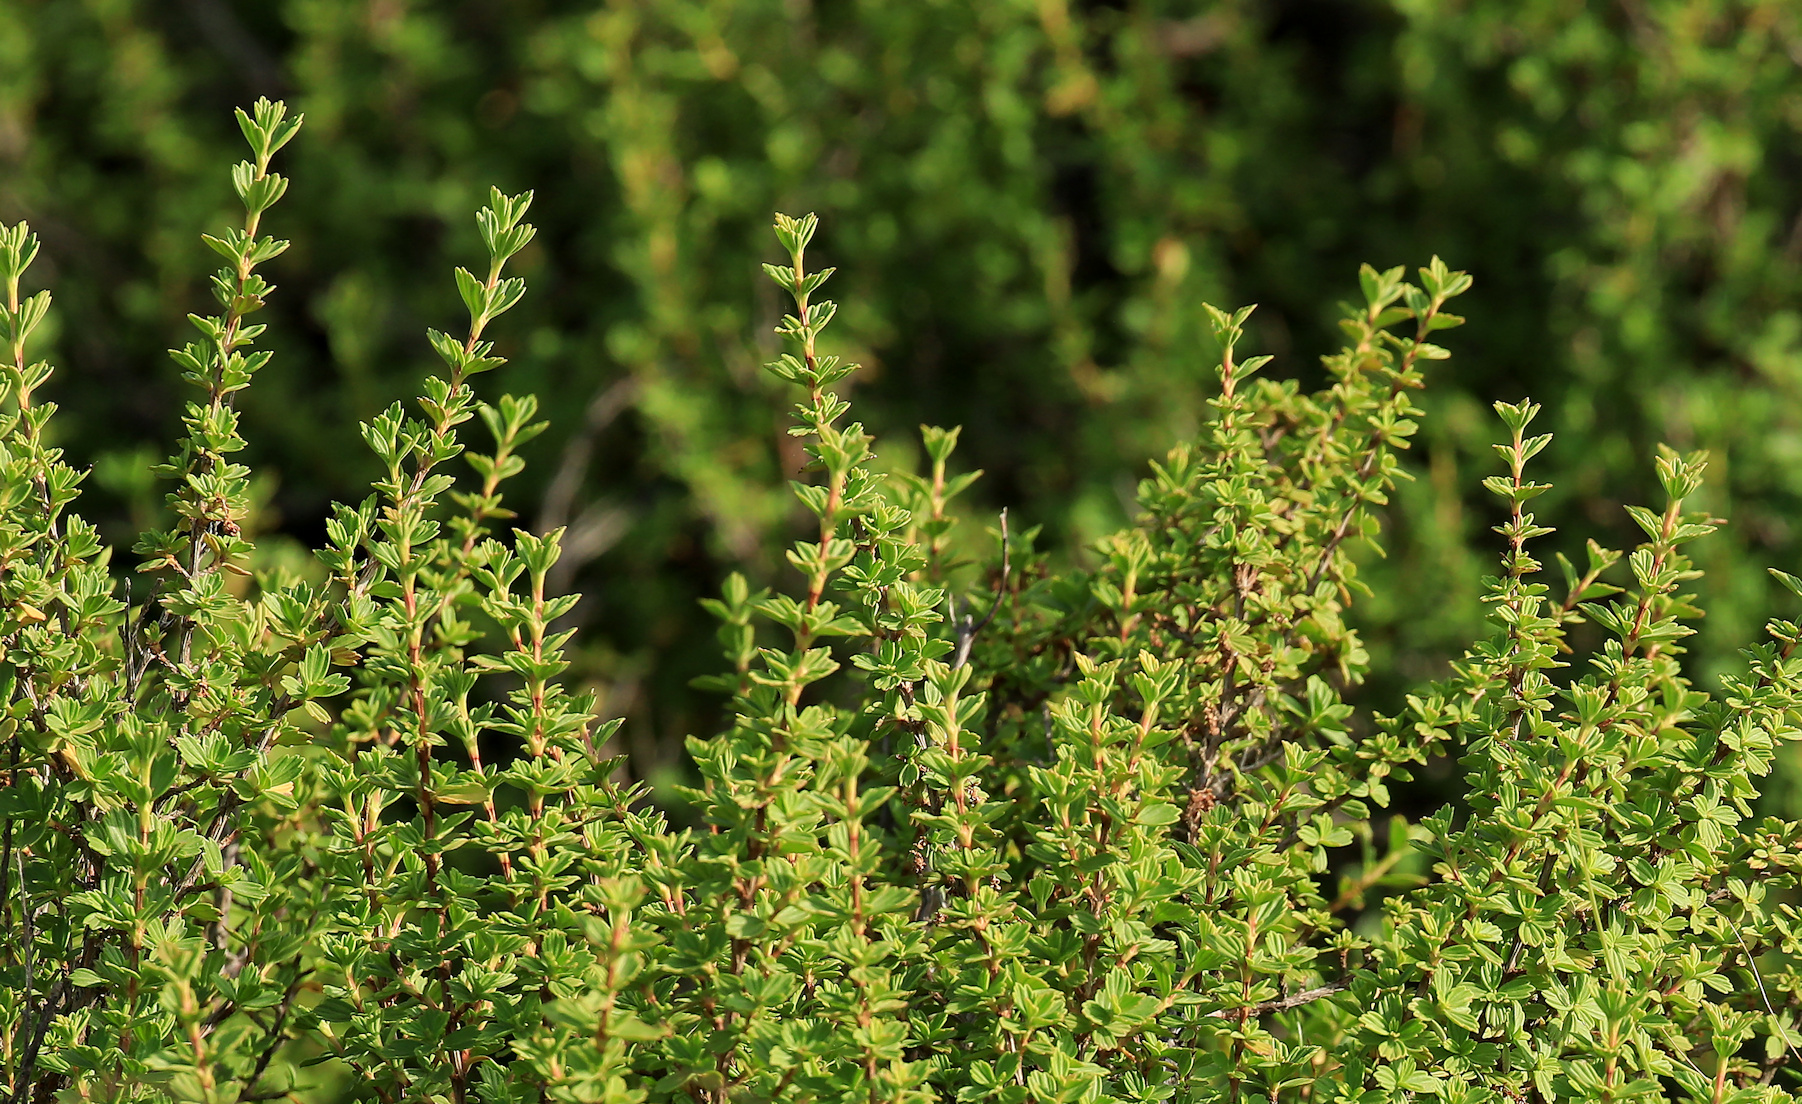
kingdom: Plantae
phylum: Tracheophyta
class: Magnoliopsida
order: Gunnerales
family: Myrothamnaceae
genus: Myrothamnus
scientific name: Myrothamnus flabellifolius
